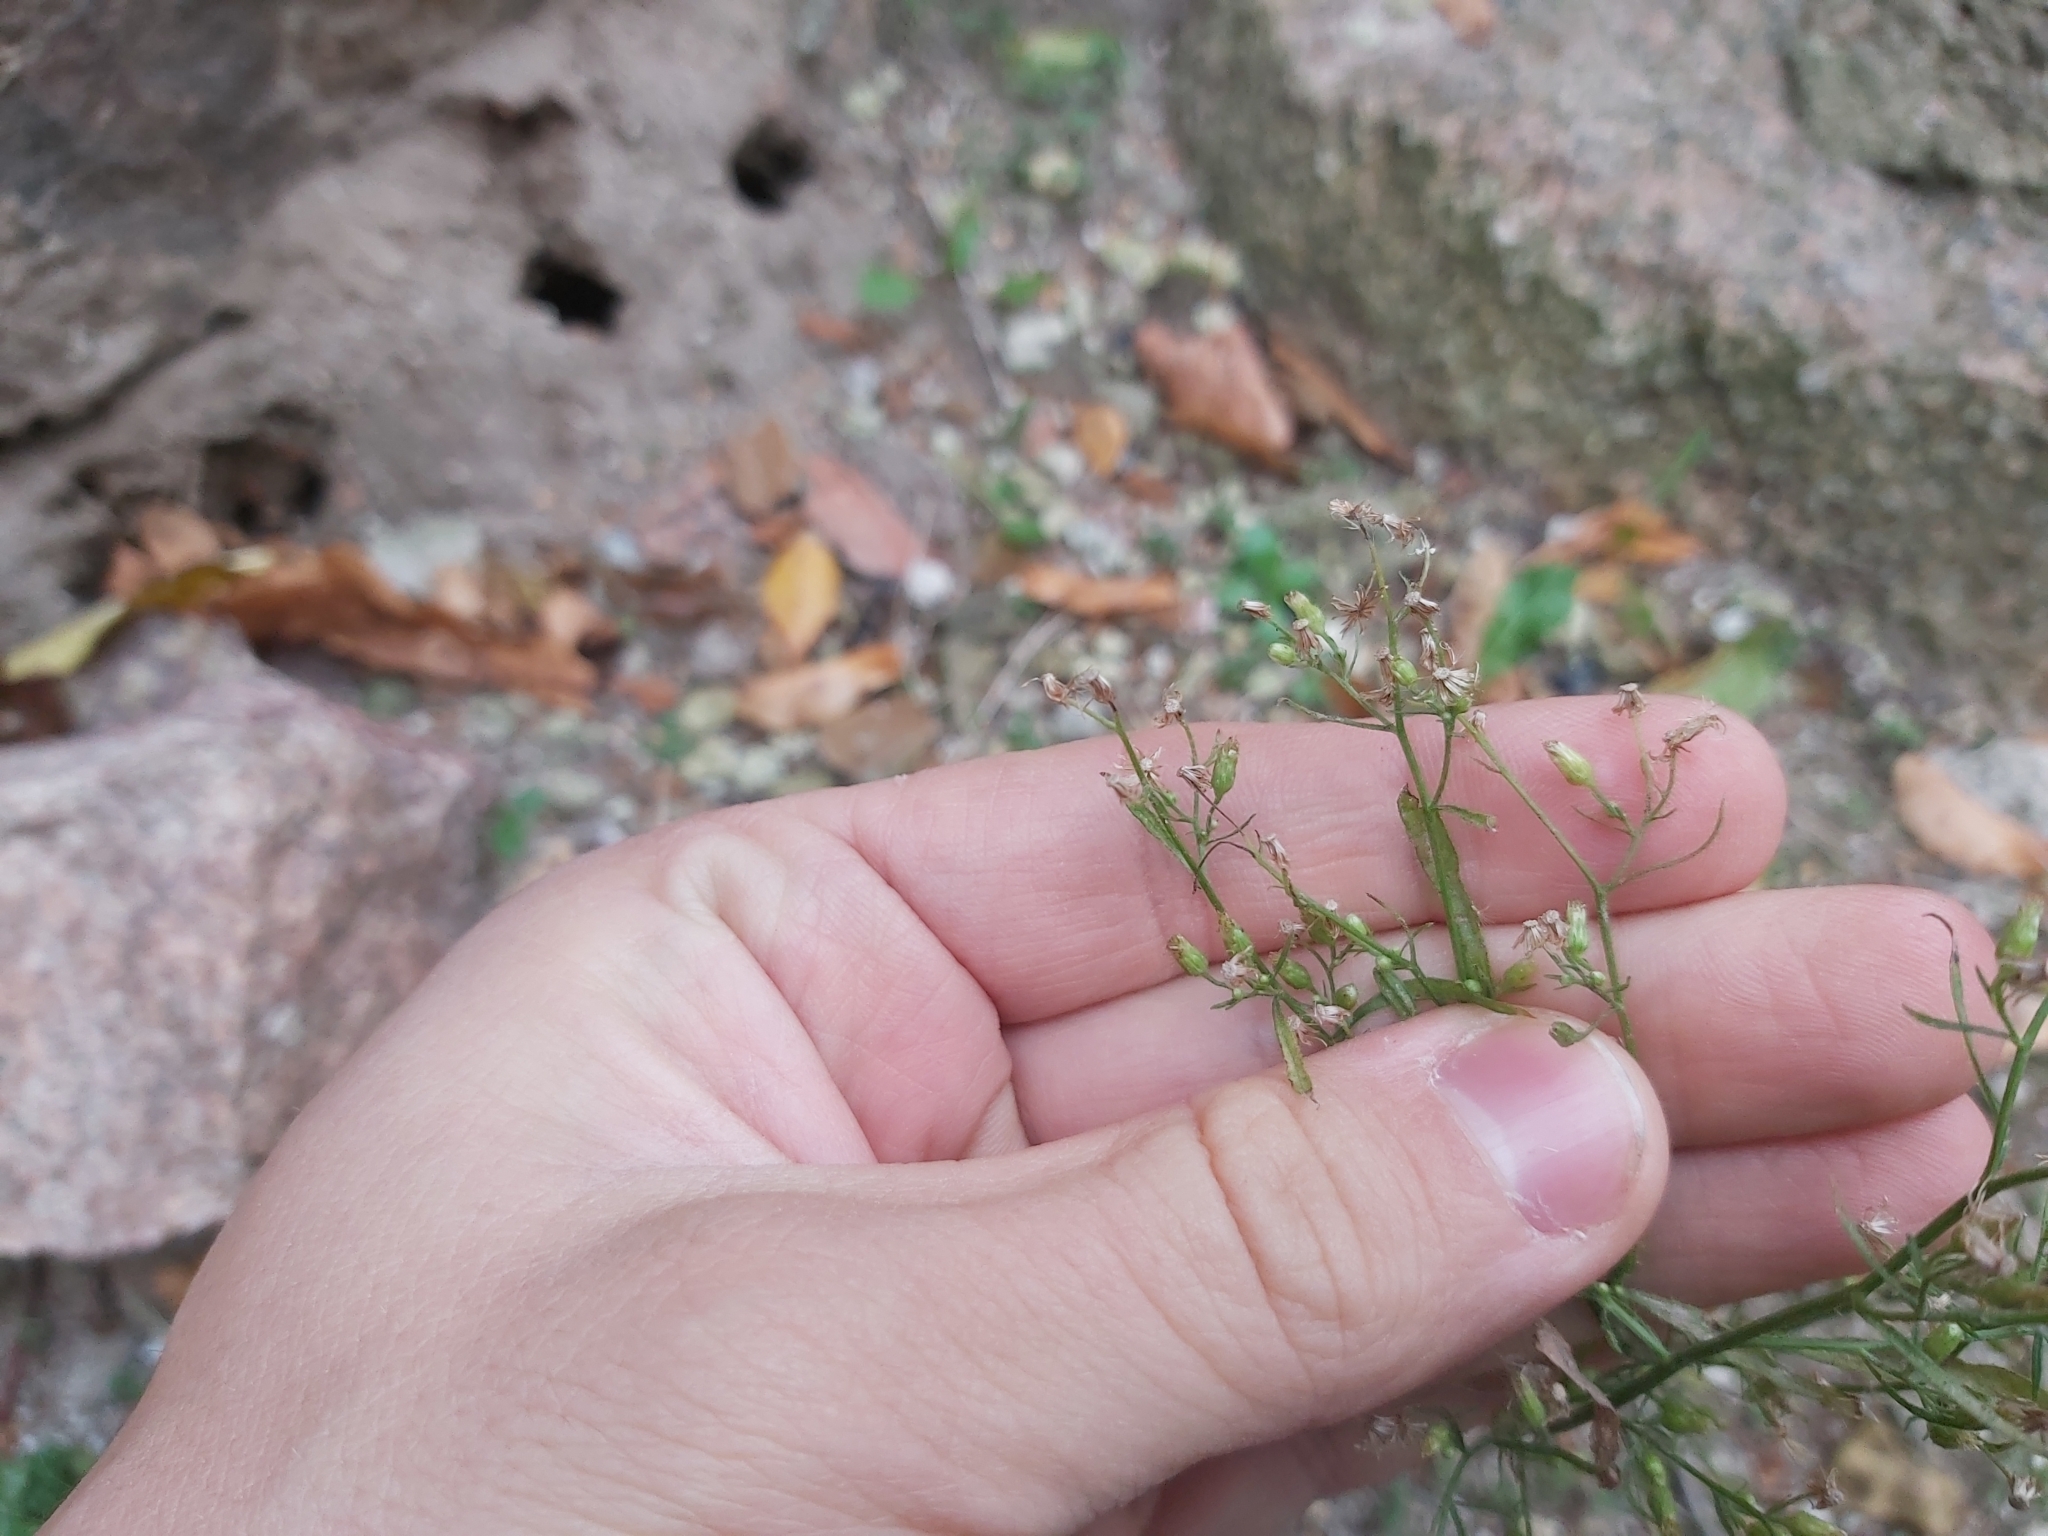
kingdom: Plantae
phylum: Tracheophyta
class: Magnoliopsida
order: Asterales
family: Asteraceae
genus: Erigeron
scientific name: Erigeron canadensis
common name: Canadian fleabane
